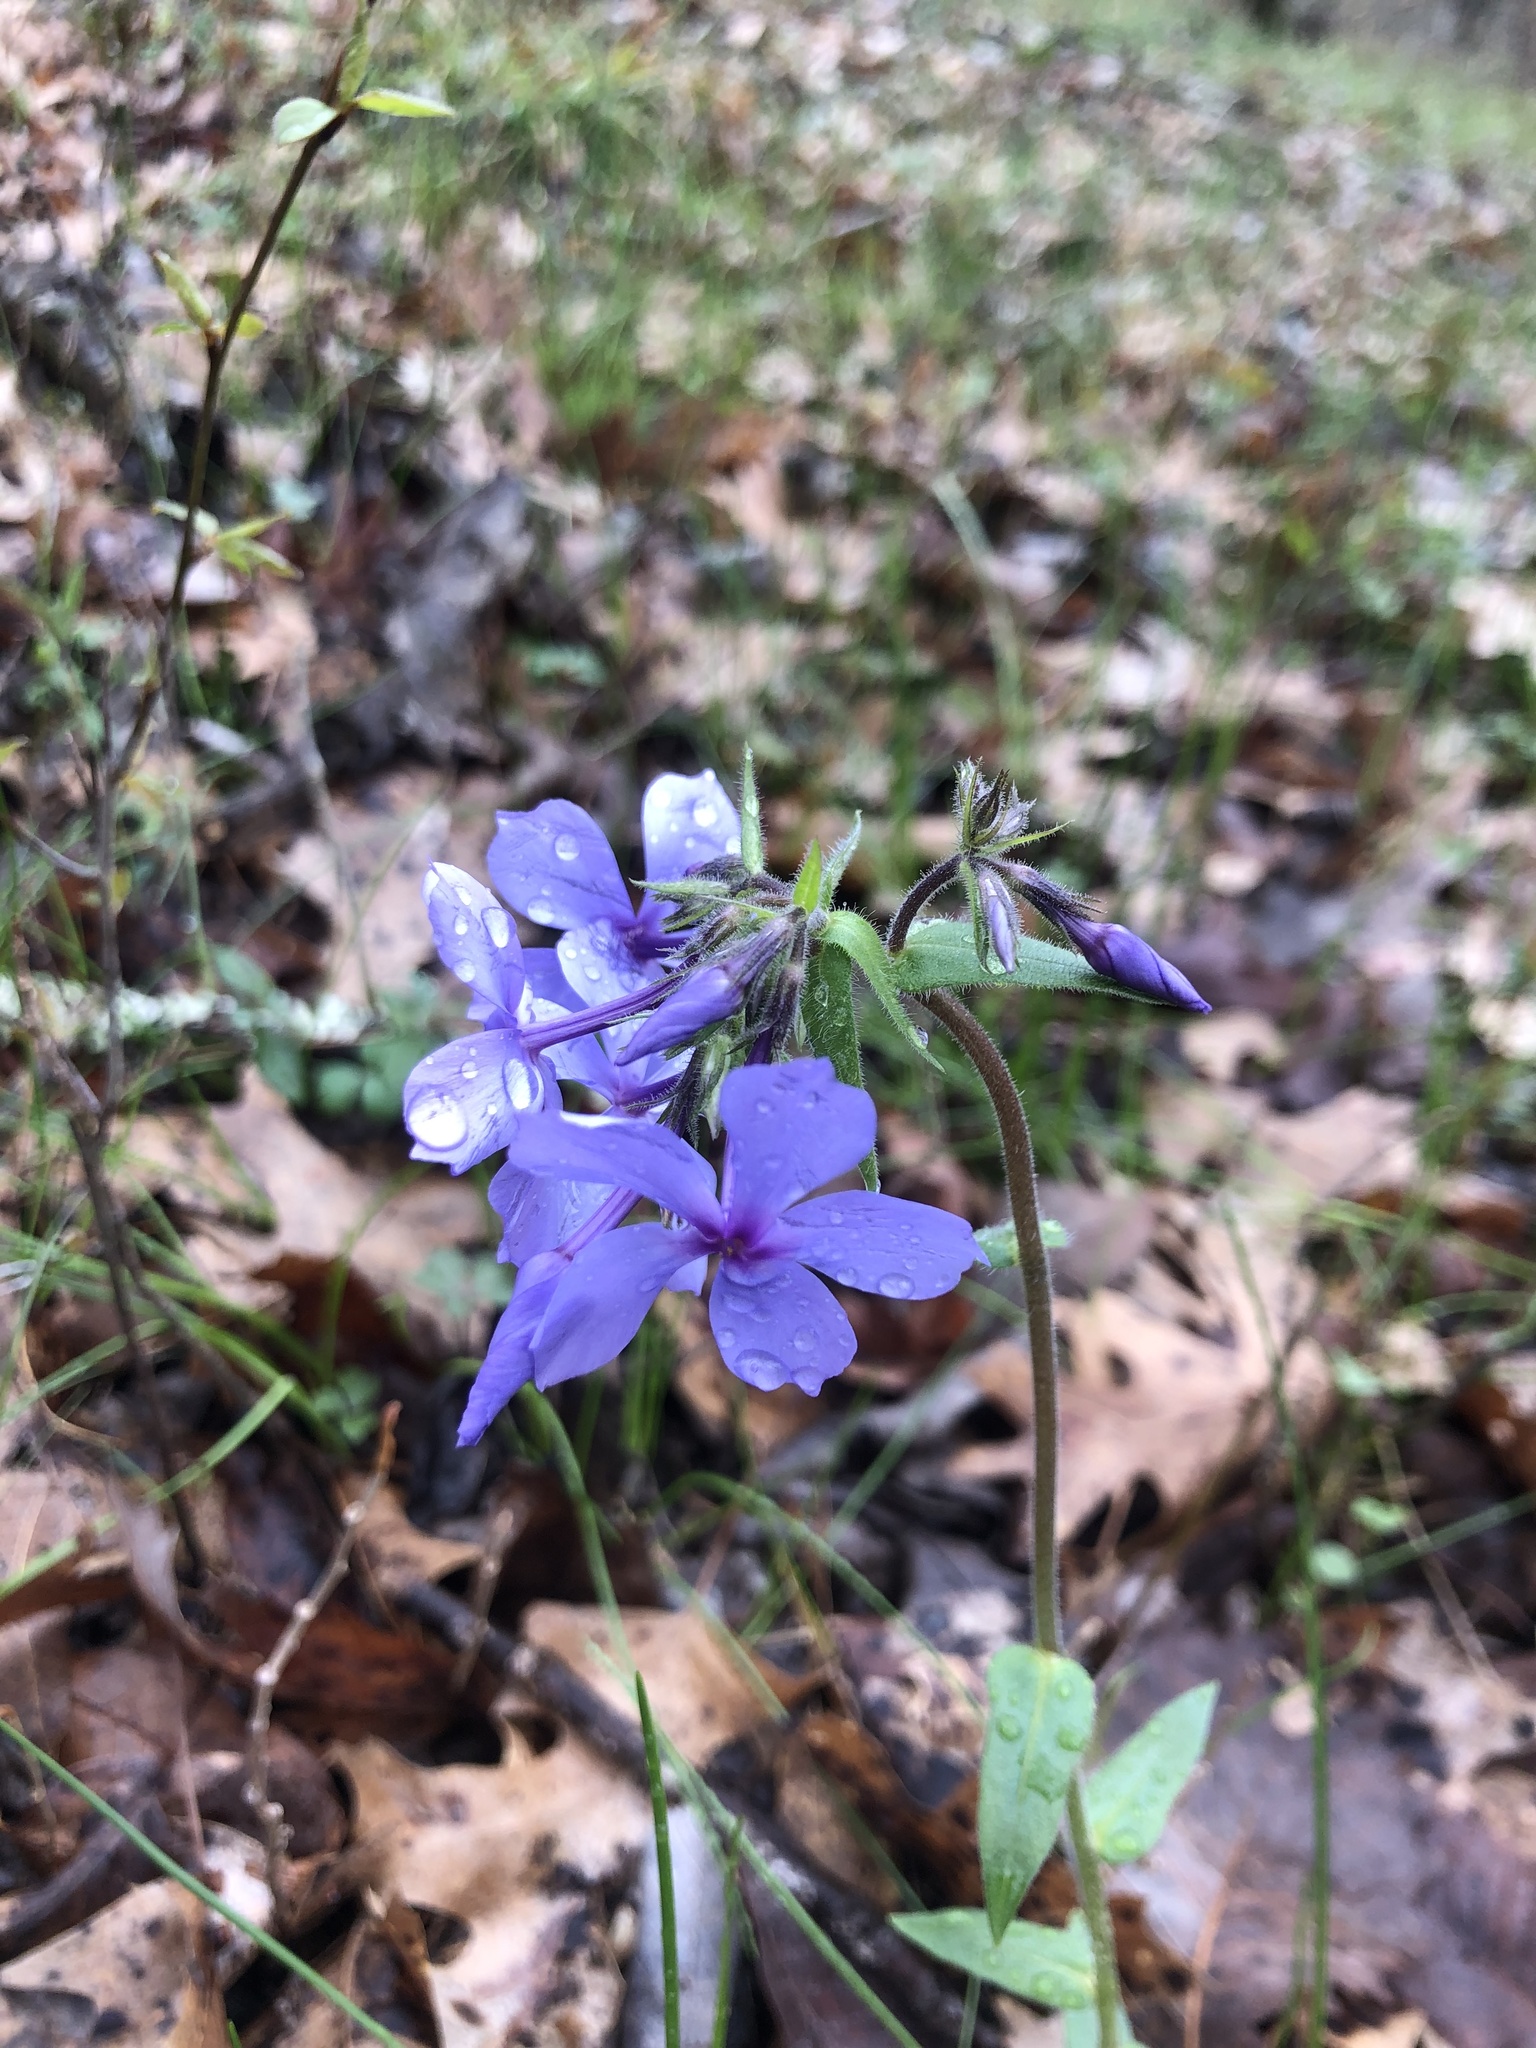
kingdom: Plantae
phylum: Tracheophyta
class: Magnoliopsida
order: Ericales
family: Polemoniaceae
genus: Phlox
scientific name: Phlox divaricata
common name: Blue phlox
